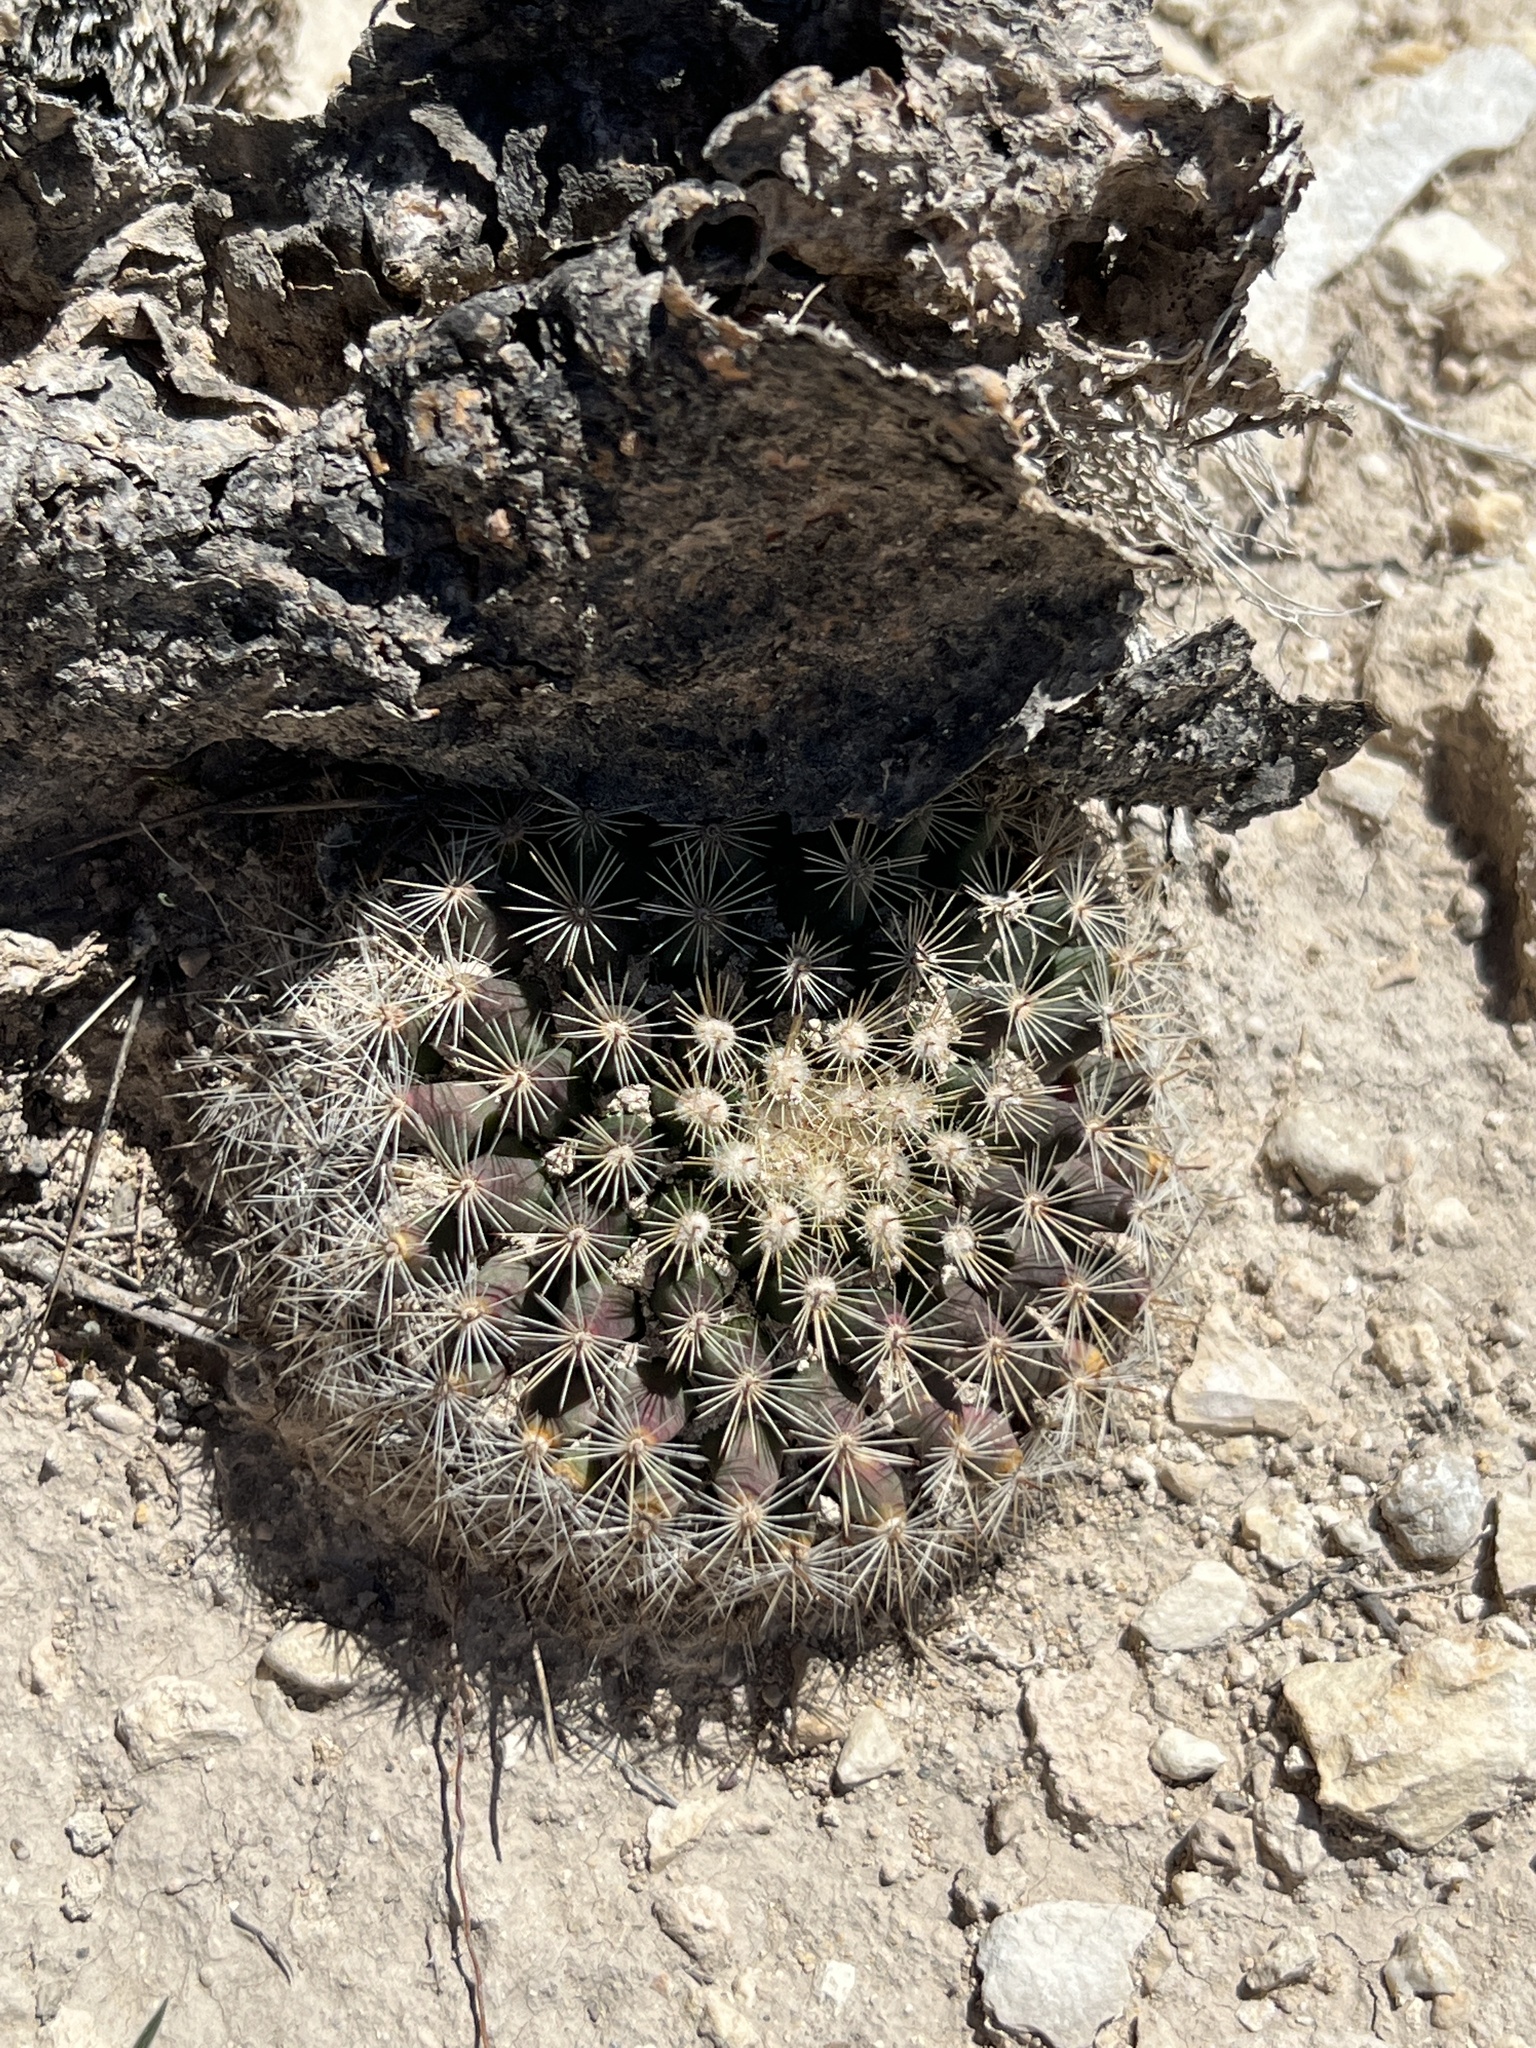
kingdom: Plantae
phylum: Tracheophyta
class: Magnoliopsida
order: Caryophyllales
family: Cactaceae
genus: Mammillaria
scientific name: Mammillaria heyderi
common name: Little nipple cactus
